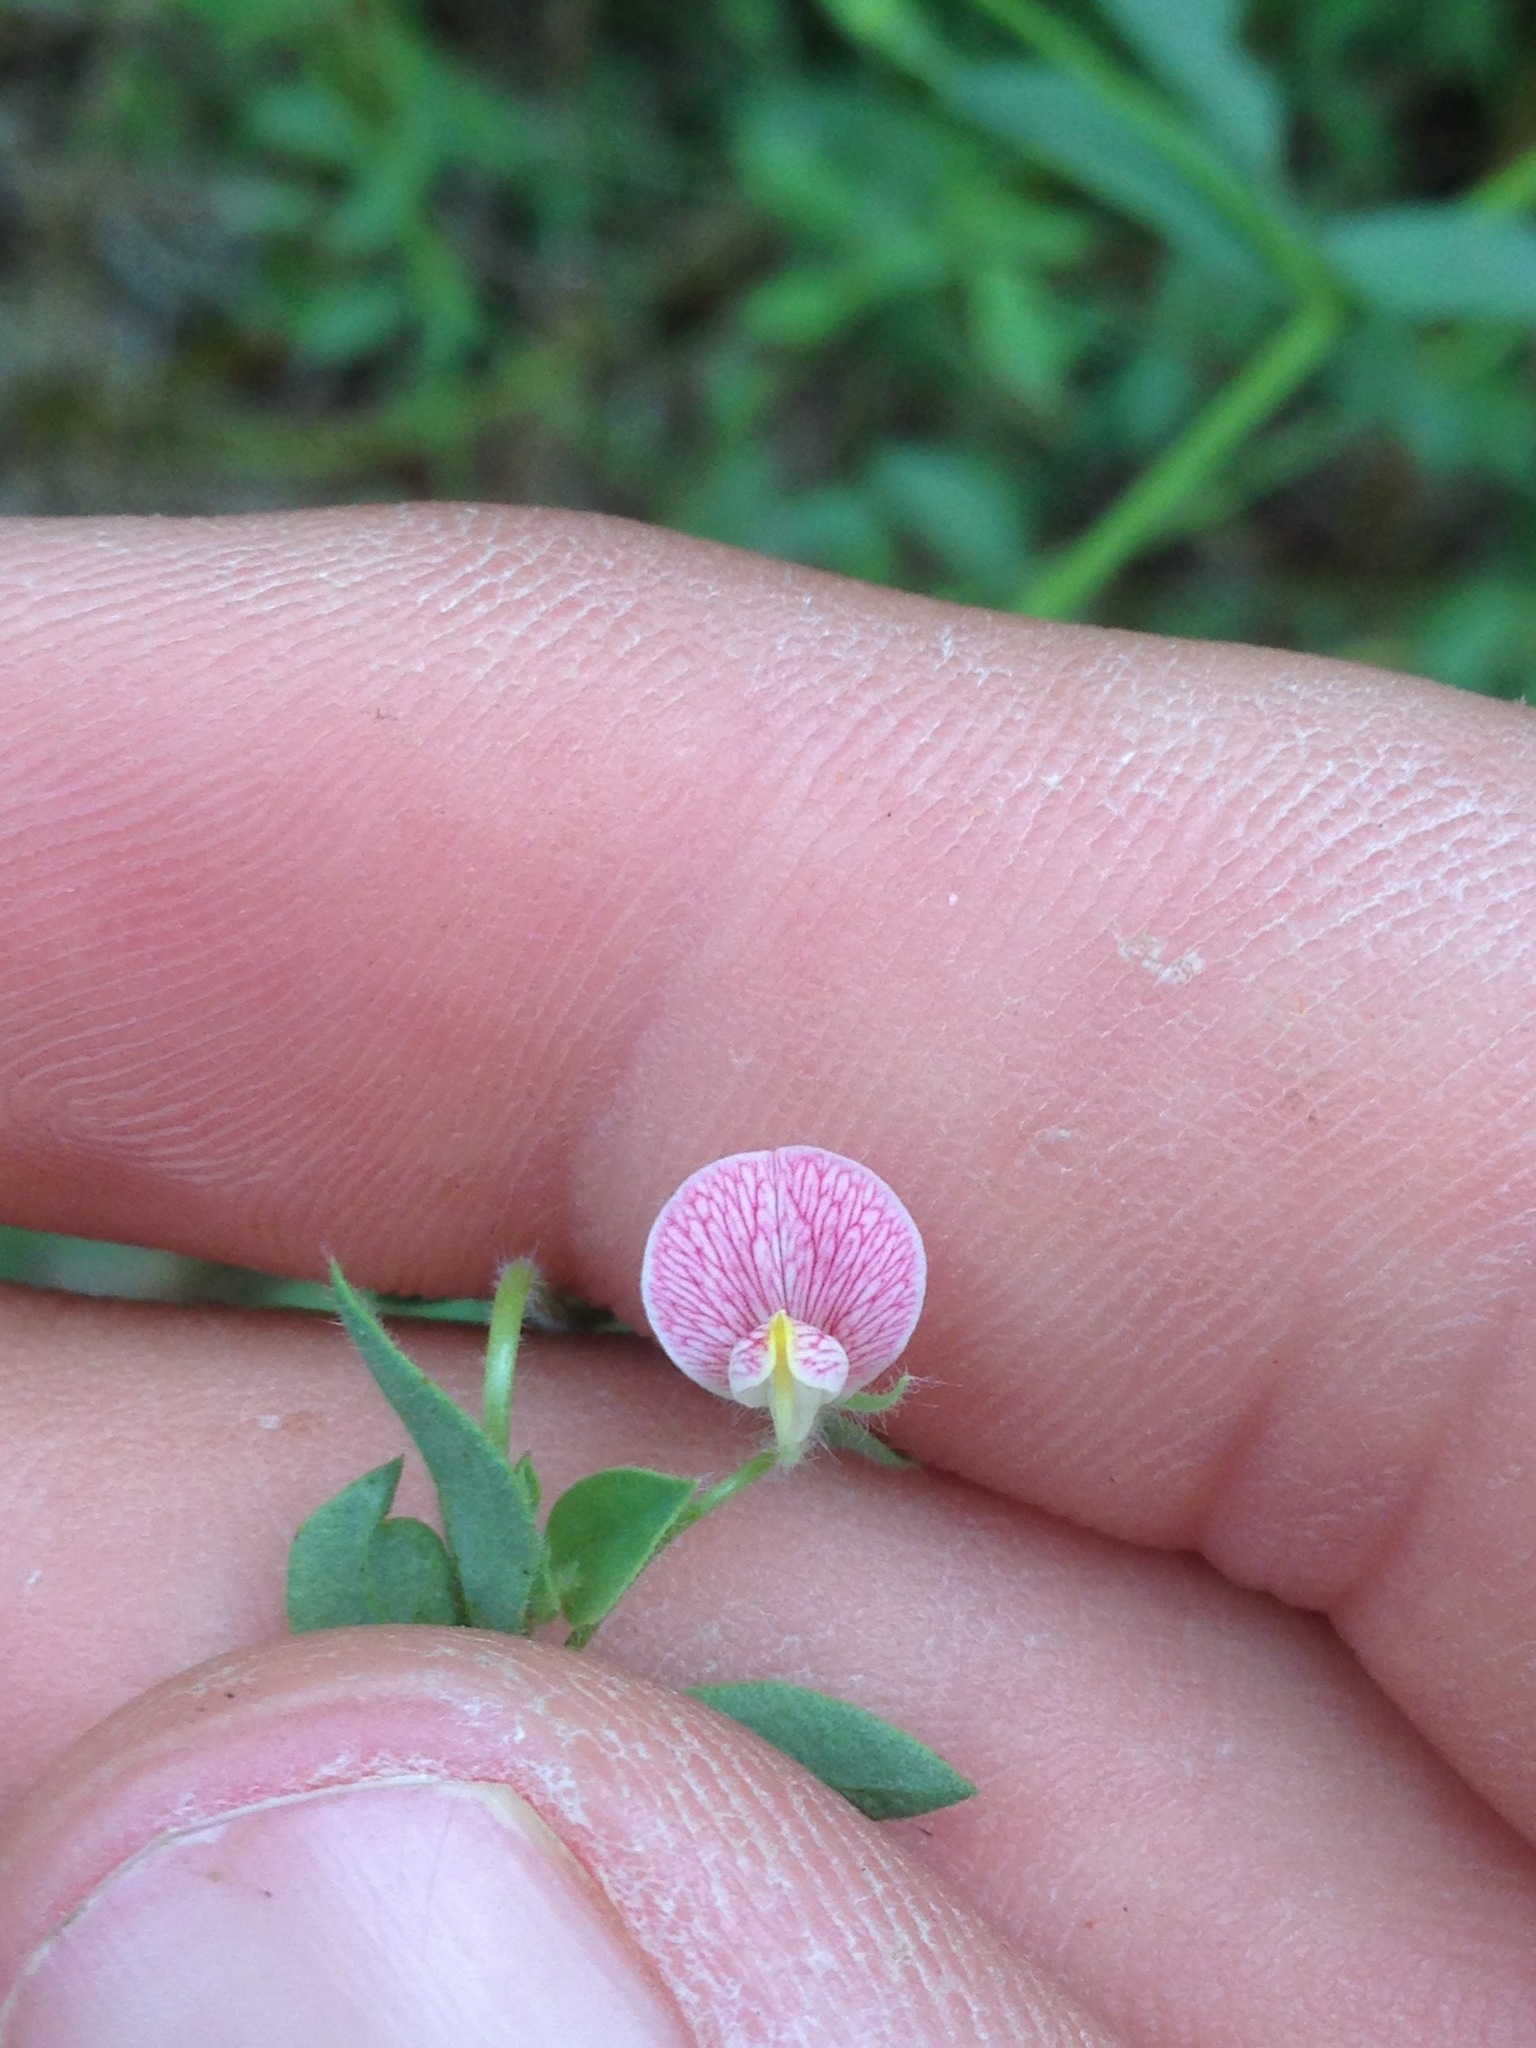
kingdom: Plantae
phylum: Tracheophyta
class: Magnoliopsida
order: Fabales
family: Fabaceae
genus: Acmispon
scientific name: Acmispon americanus
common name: American bird's-foot trefoil
